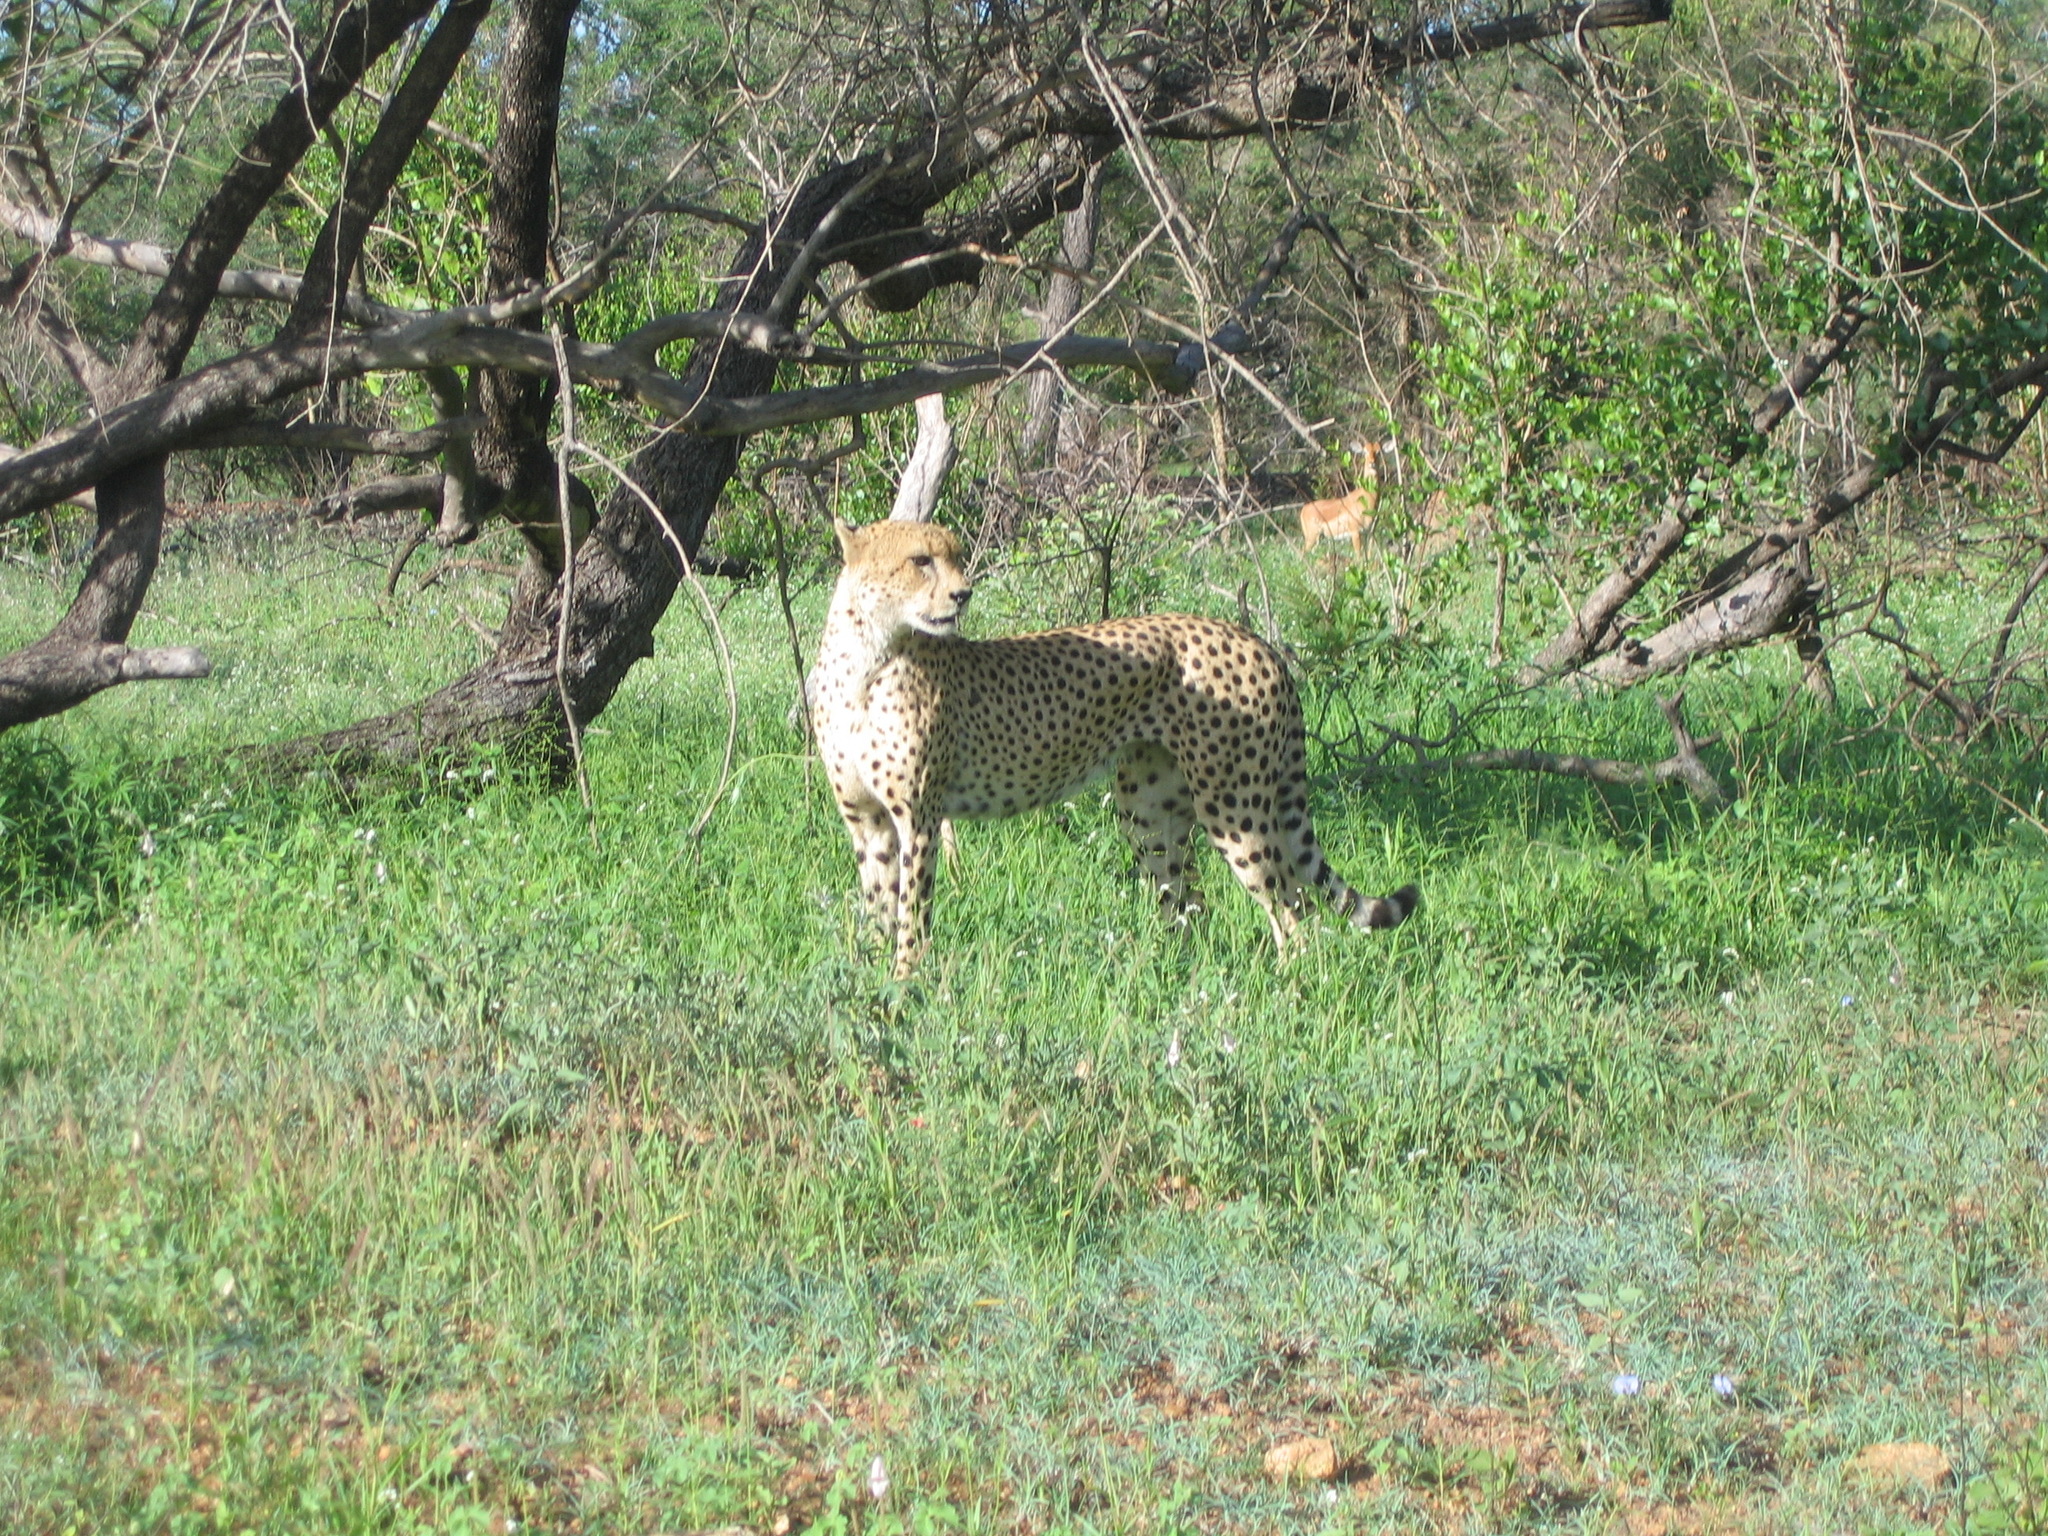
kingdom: Animalia
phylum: Chordata
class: Mammalia
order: Carnivora
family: Felidae
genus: Acinonyx
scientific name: Acinonyx jubatus
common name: Cheetah
